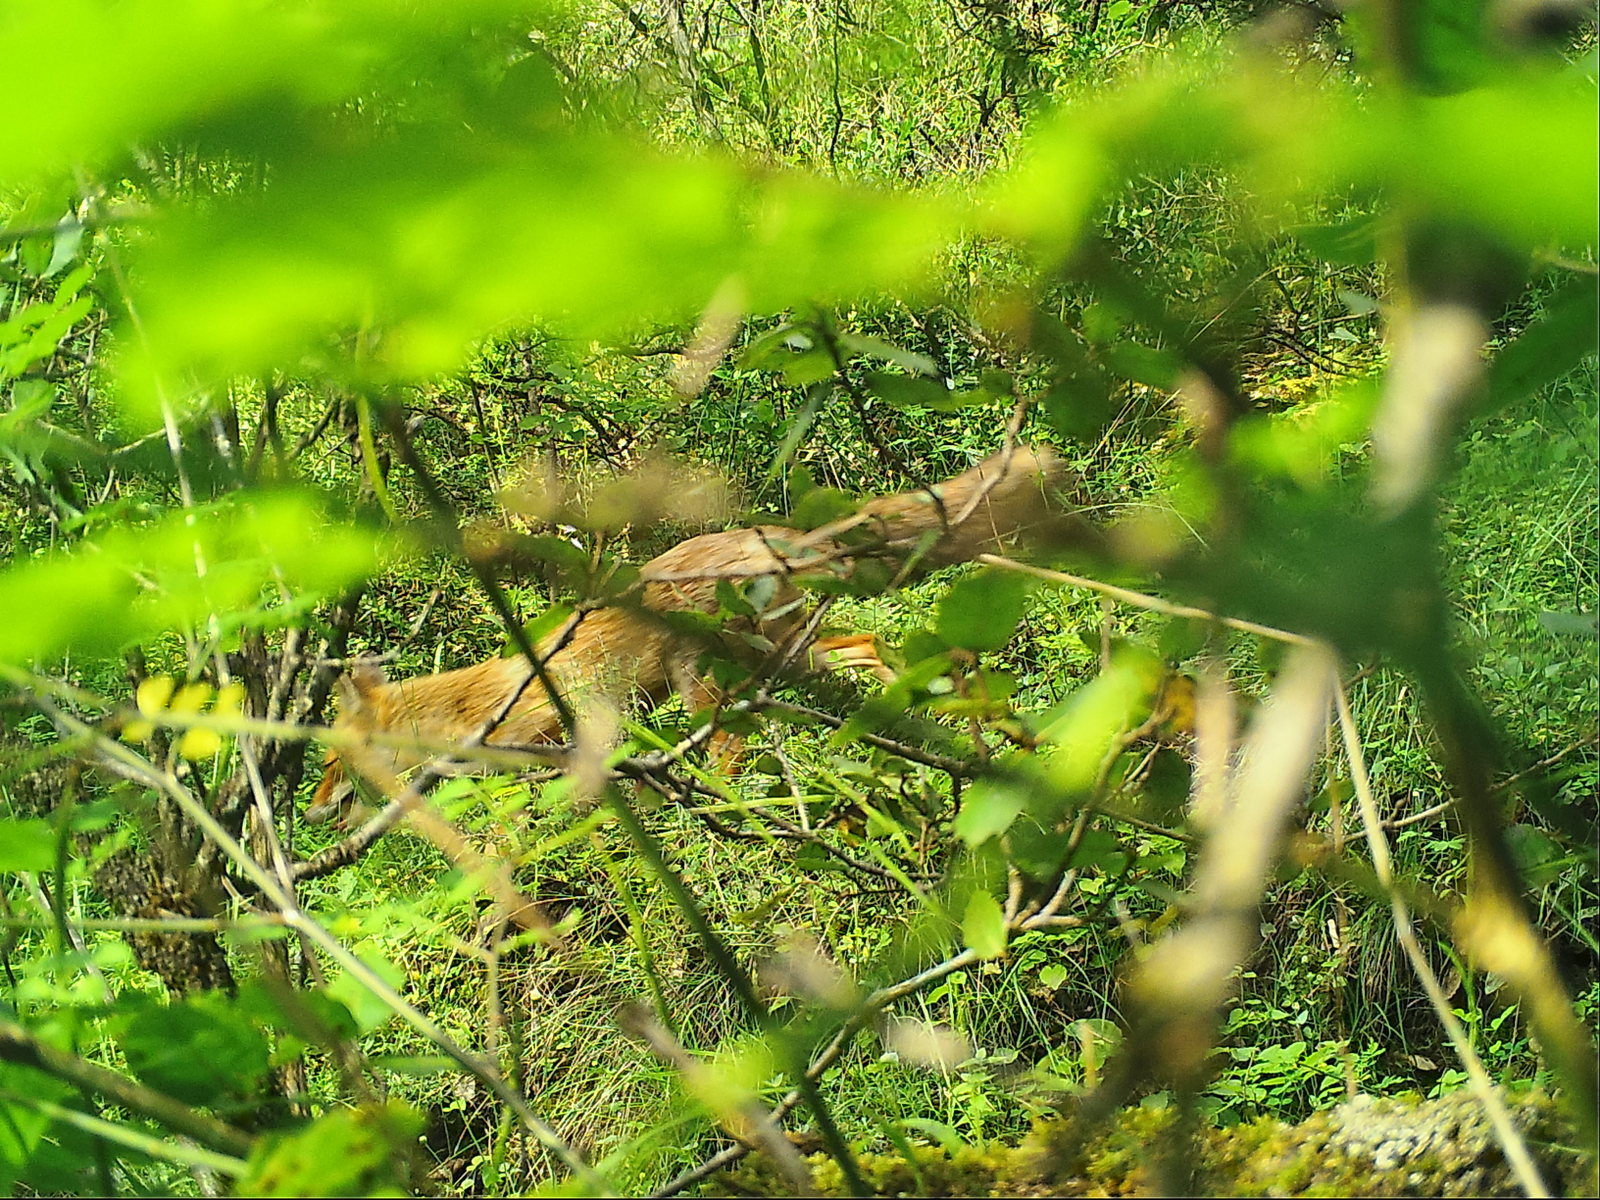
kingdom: Animalia
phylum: Chordata
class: Mammalia
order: Carnivora
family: Canidae
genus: Vulpes
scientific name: Vulpes vulpes
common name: Red fox
